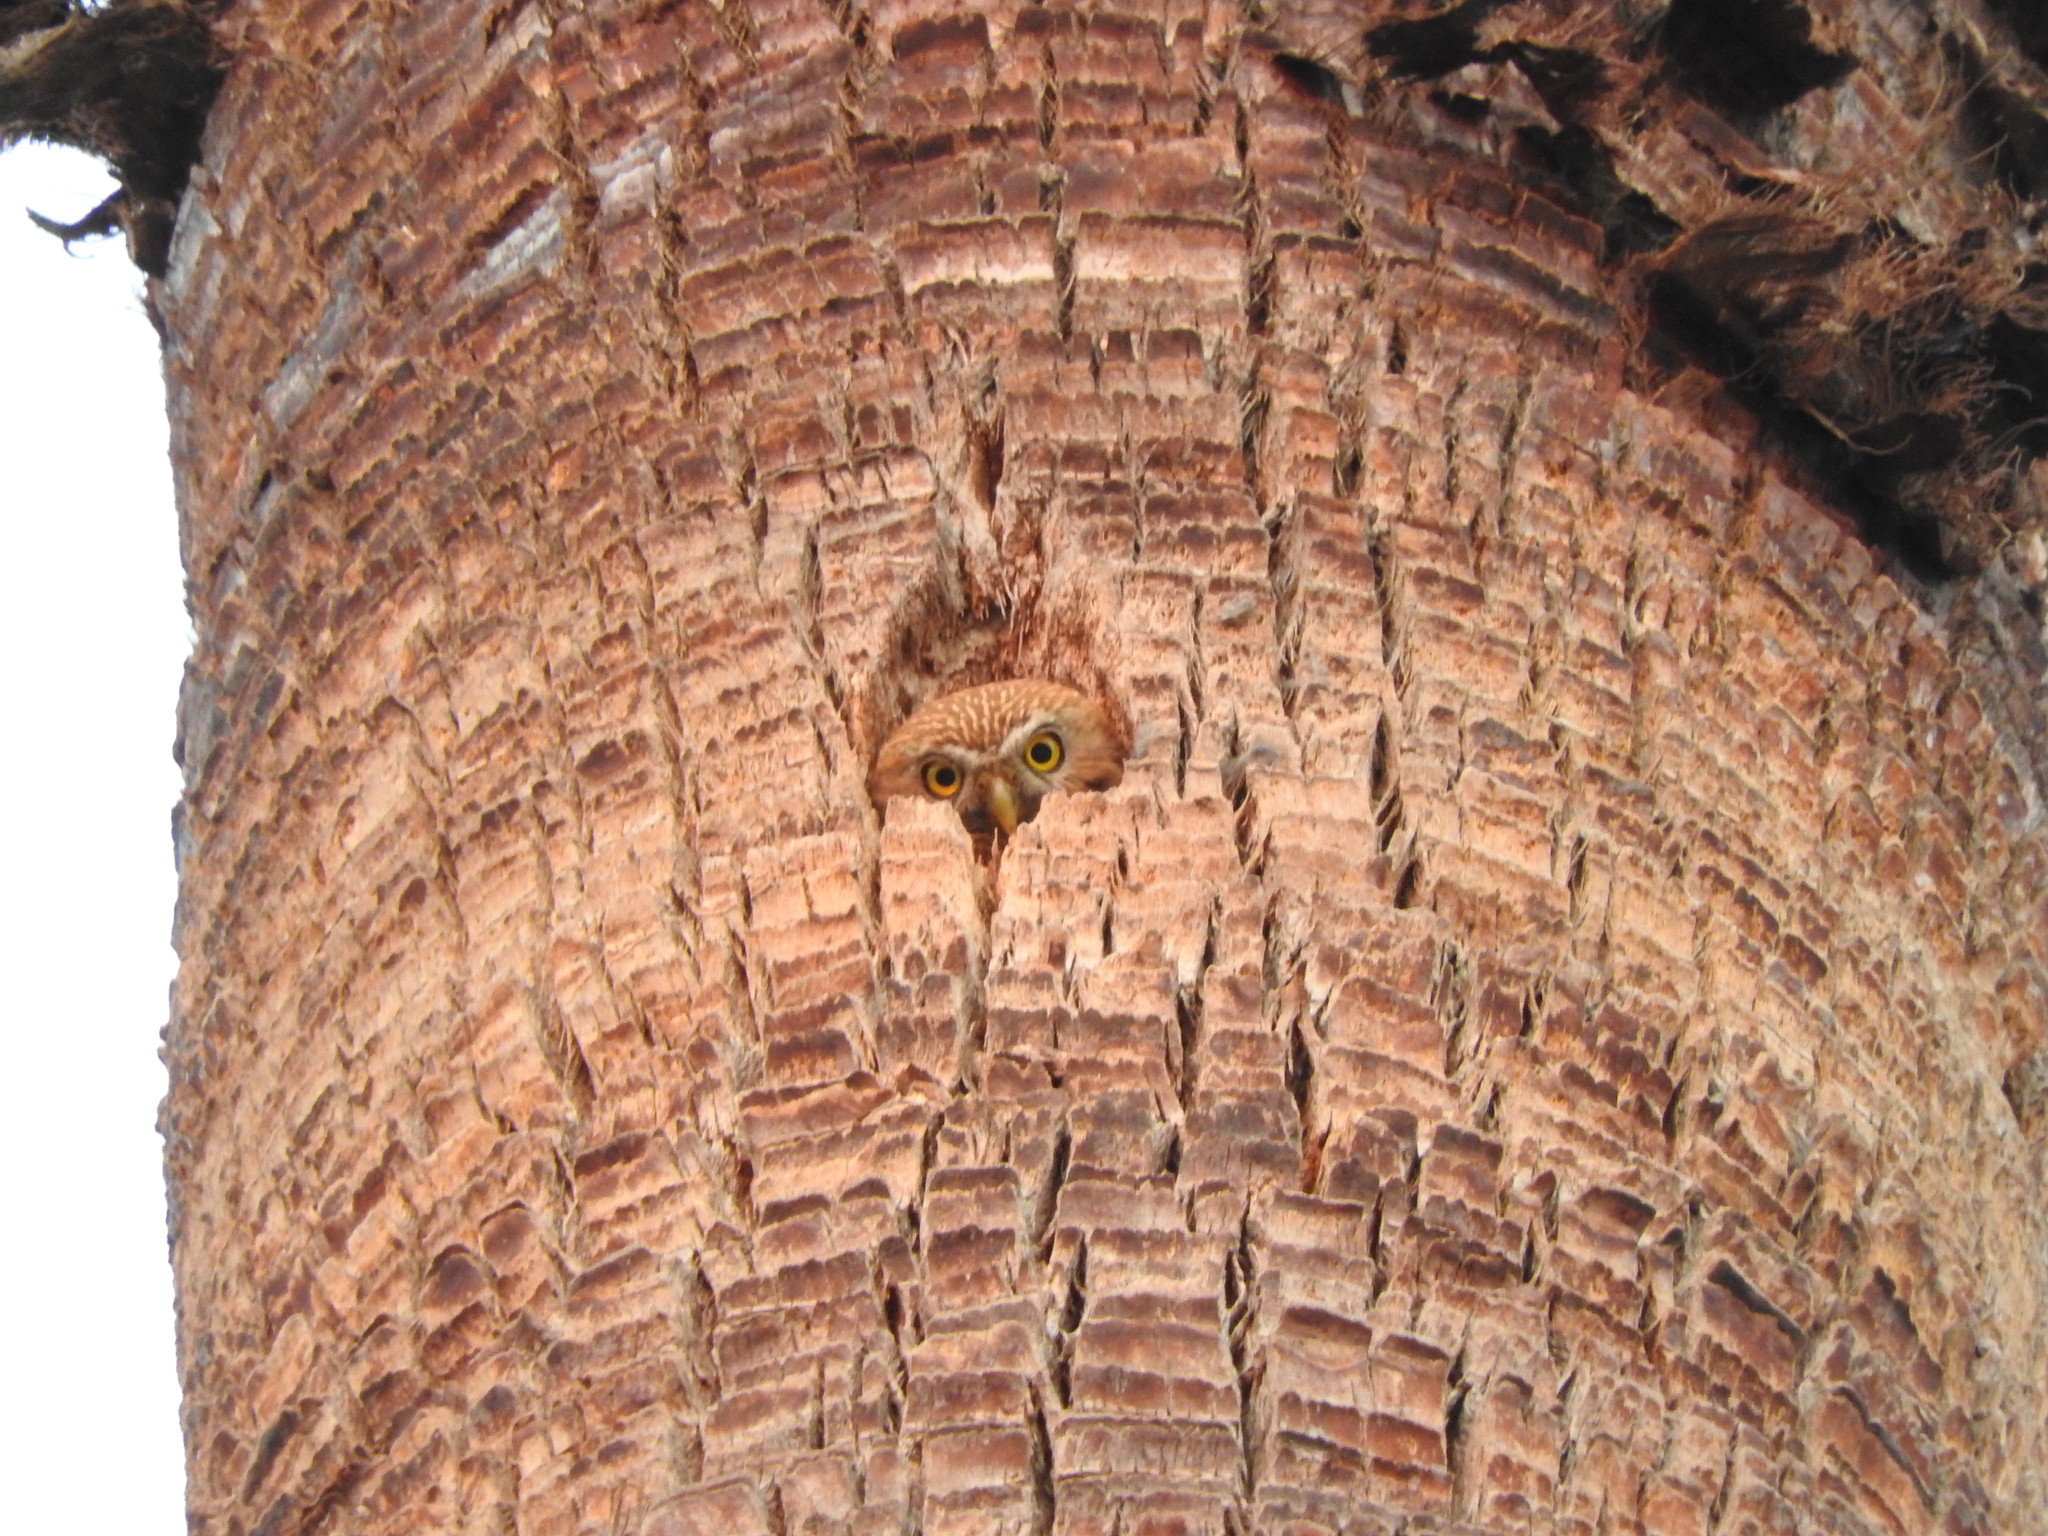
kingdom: Animalia
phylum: Chordata
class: Aves
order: Strigiformes
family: Strigidae
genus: Glaucidium
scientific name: Glaucidium brasilianum
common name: Ferruginous pygmy-owl
